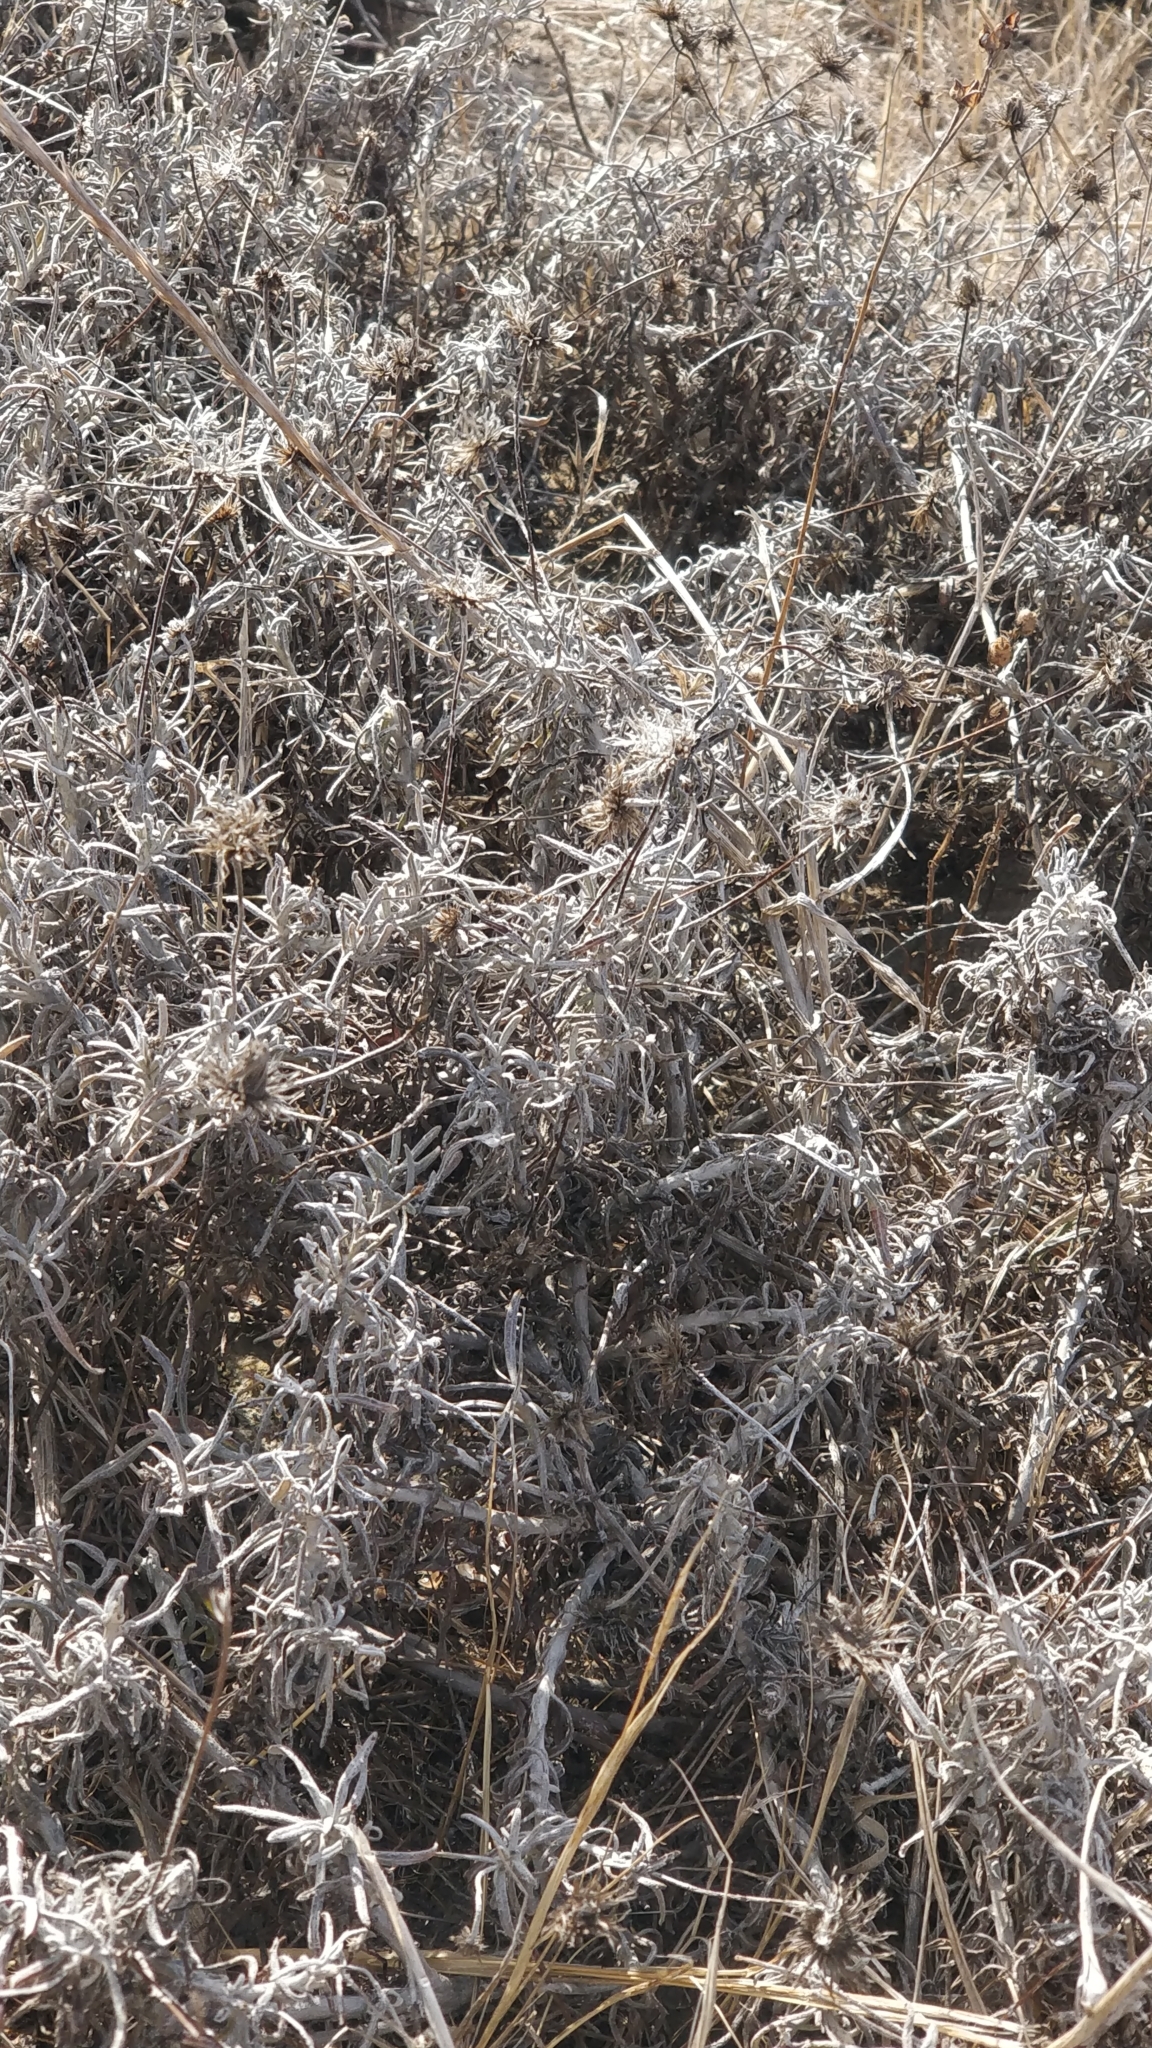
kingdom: Plantae
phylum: Tracheophyta
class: Magnoliopsida
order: Asterales
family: Asteraceae
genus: Phagnalon
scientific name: Phagnalon saxatile
